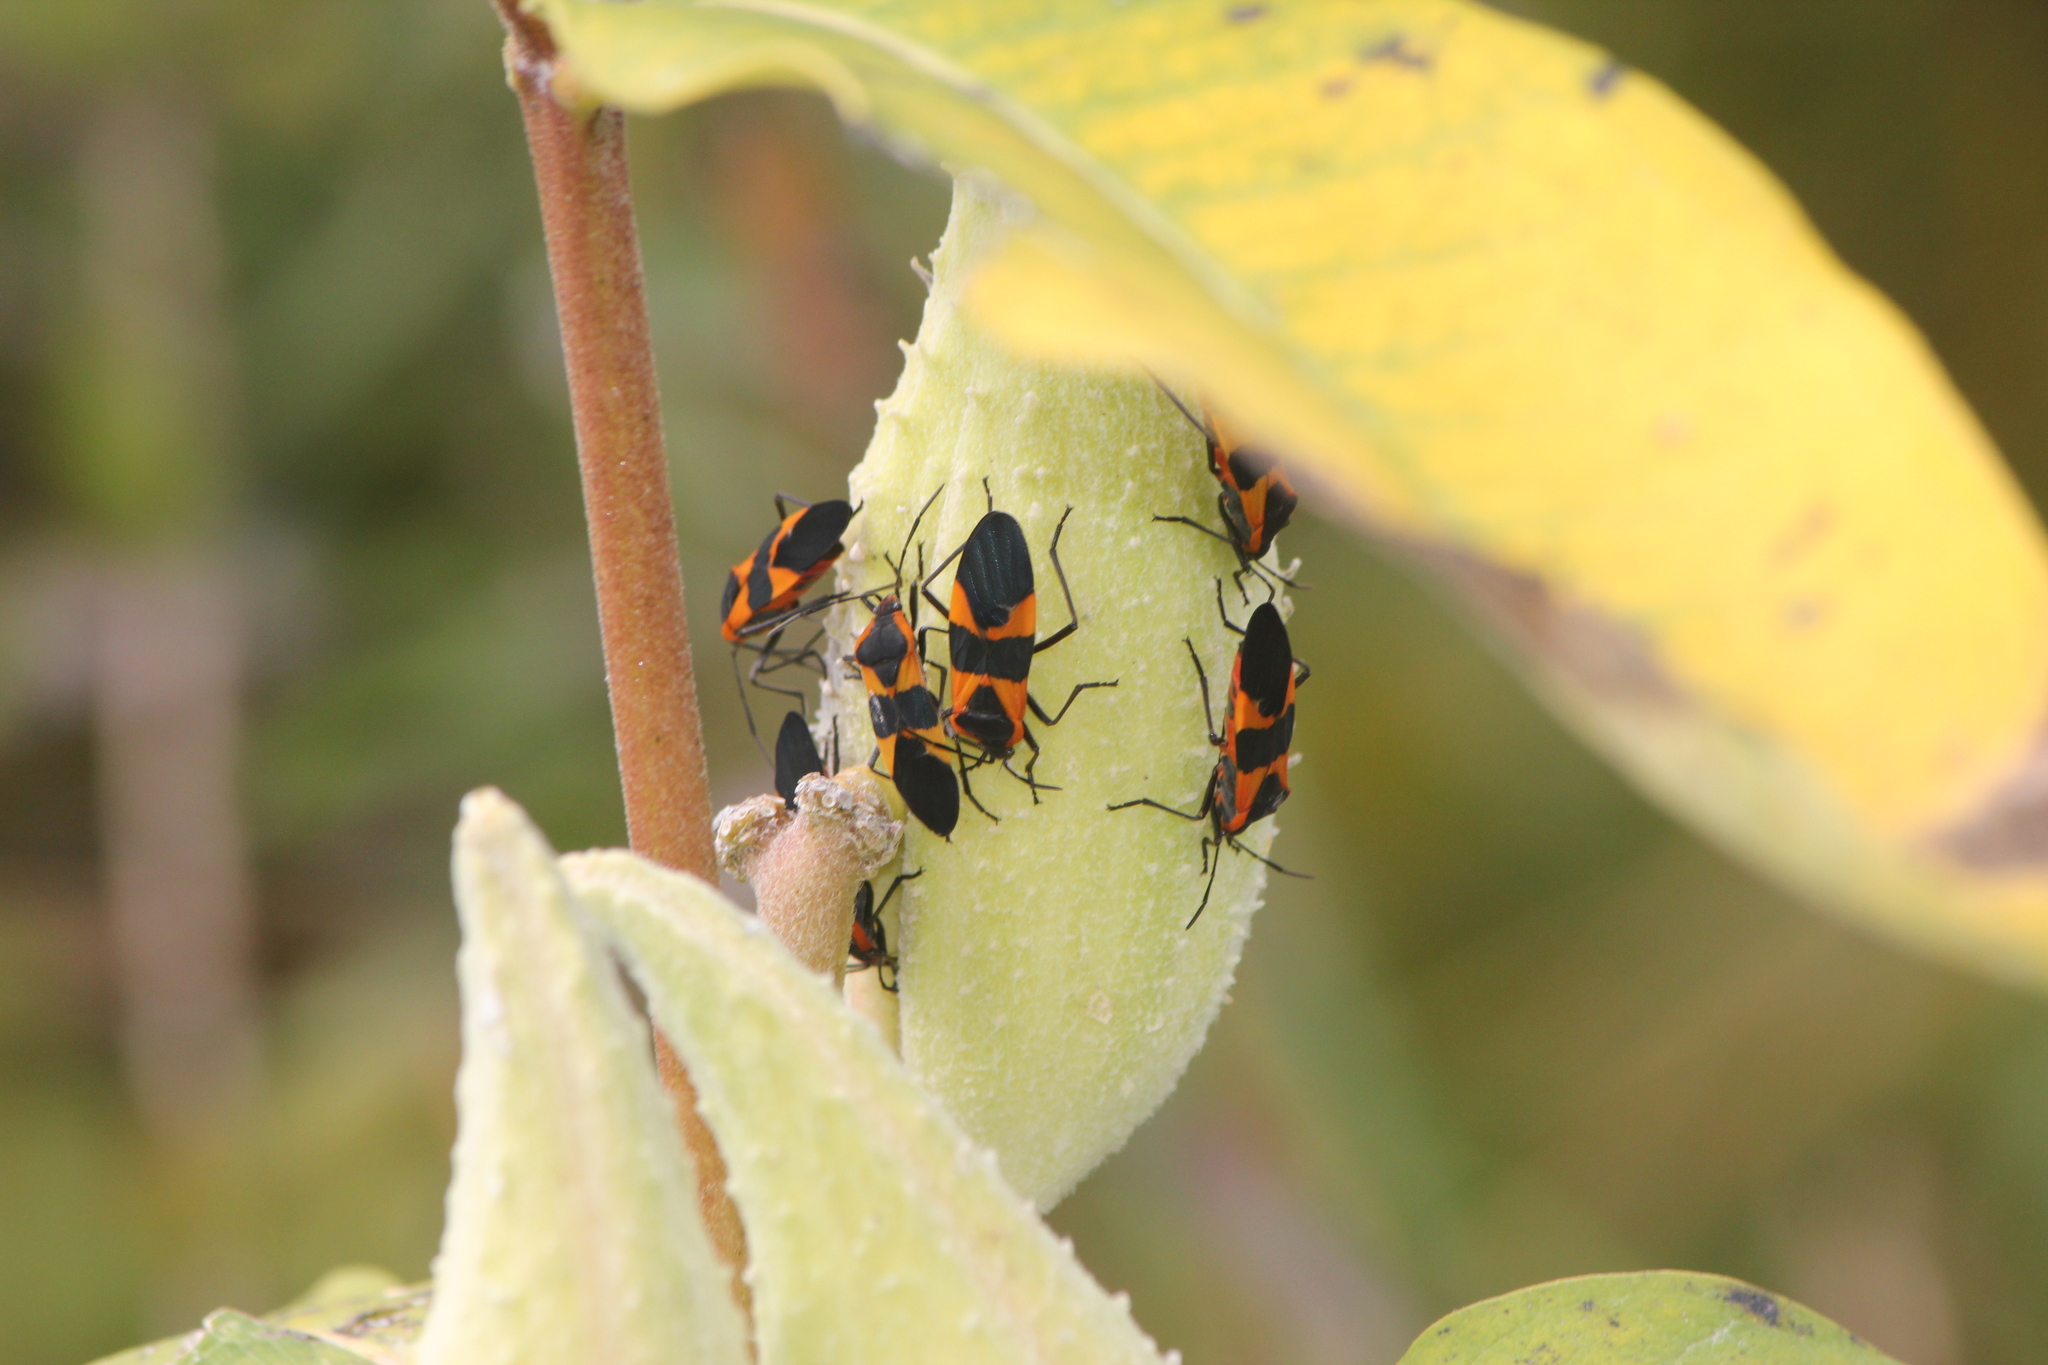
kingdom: Animalia
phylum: Arthropoda
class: Insecta
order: Hemiptera
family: Lygaeidae
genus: Oncopeltus
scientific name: Oncopeltus fasciatus
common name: Large milkweed bug
